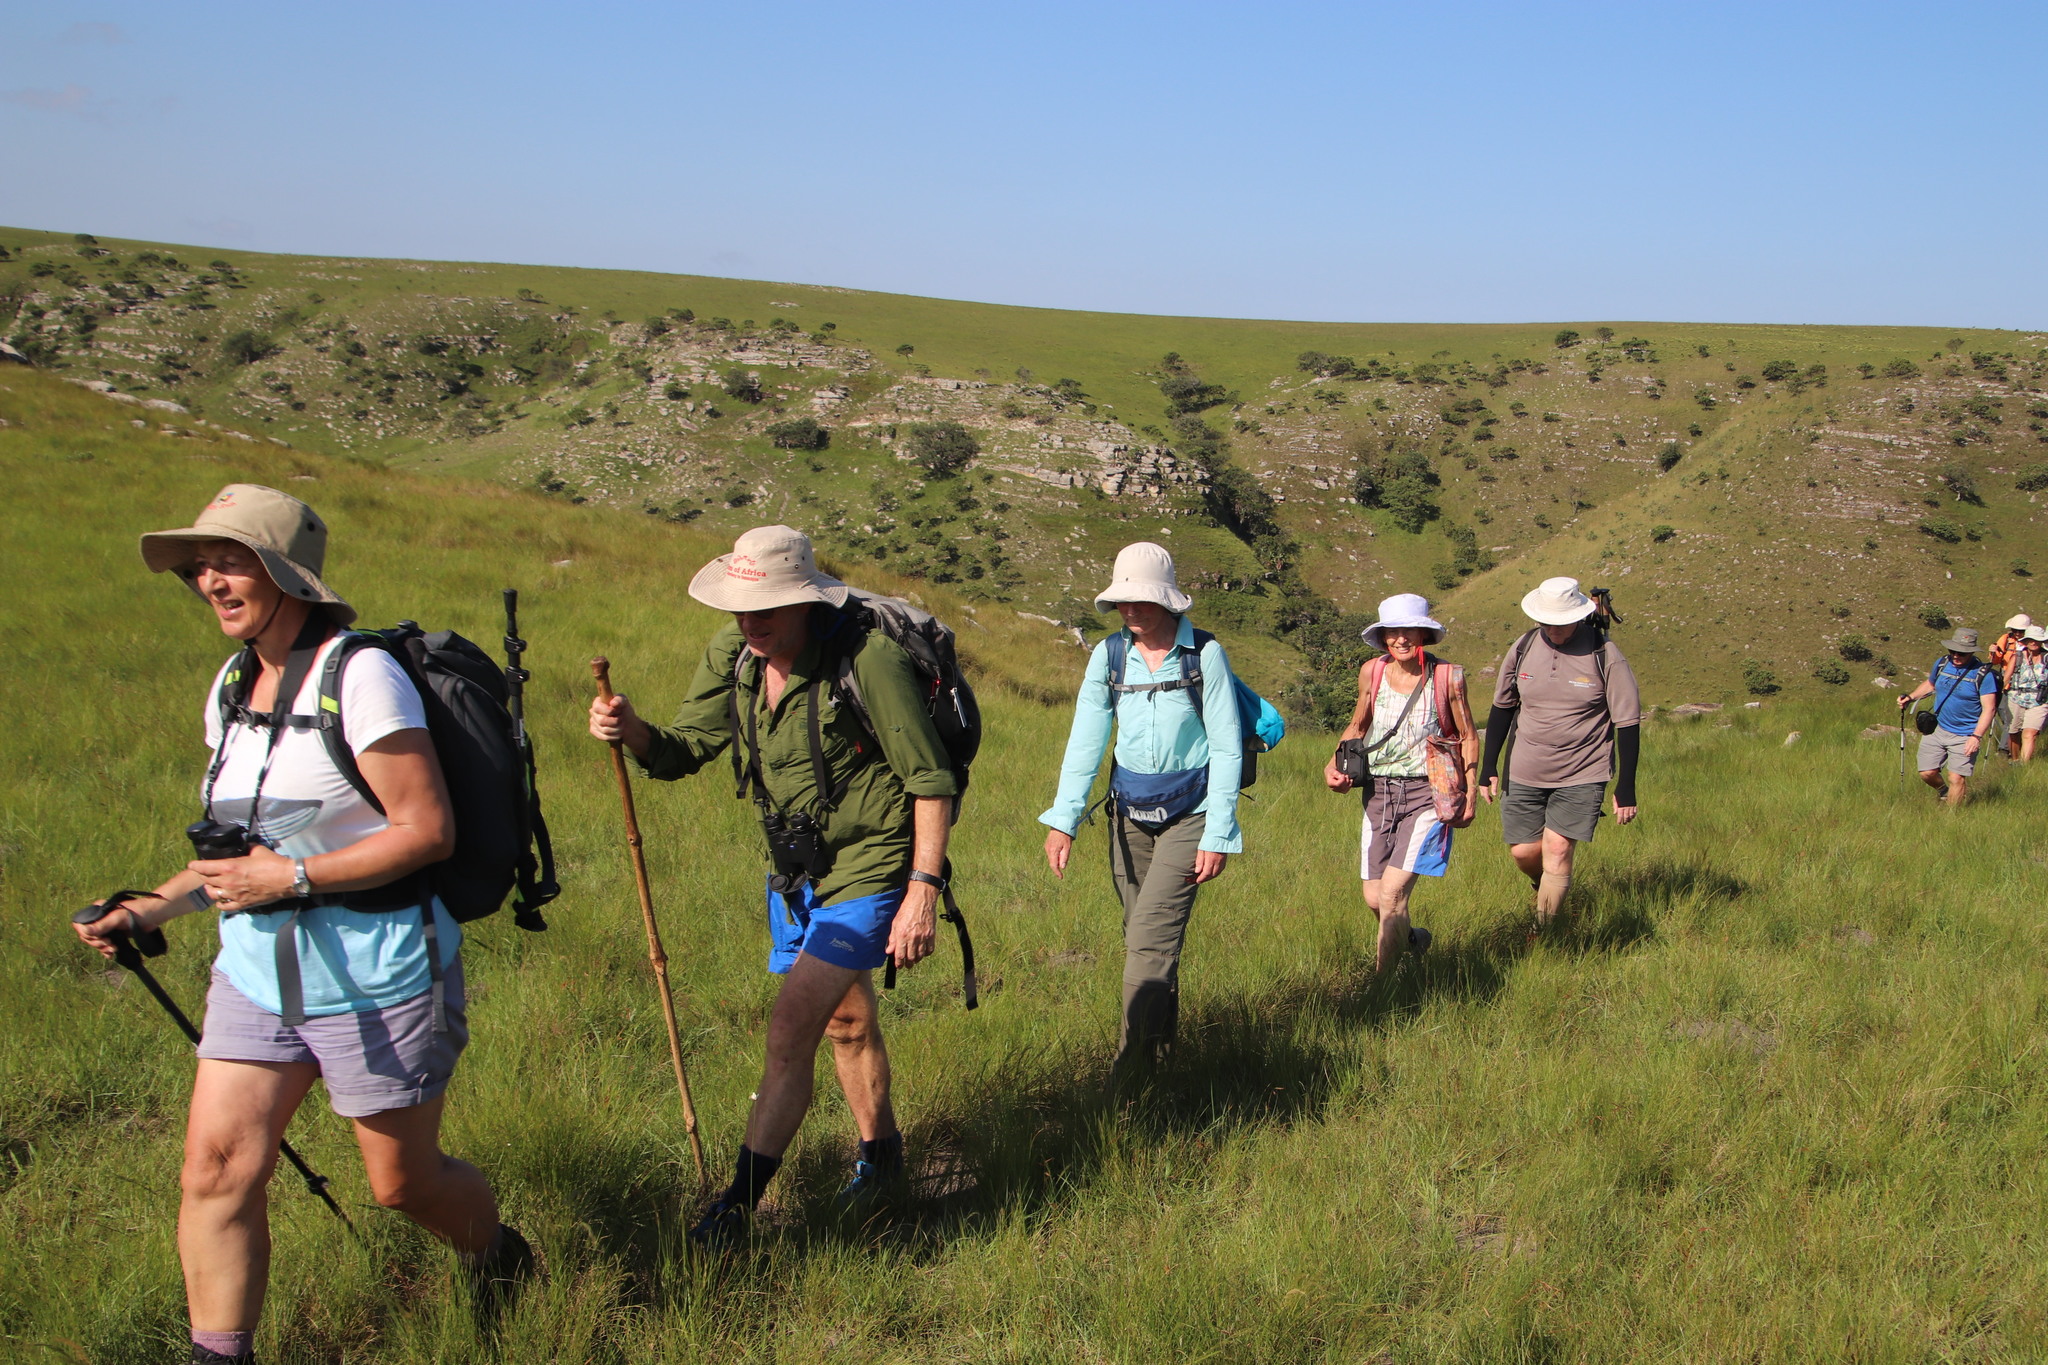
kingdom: Plantae
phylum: Tracheophyta
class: Magnoliopsida
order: Proteales
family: Proteaceae
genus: Leucadendron
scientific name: Leucadendron spissifolium
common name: Spear-leaf conebush
